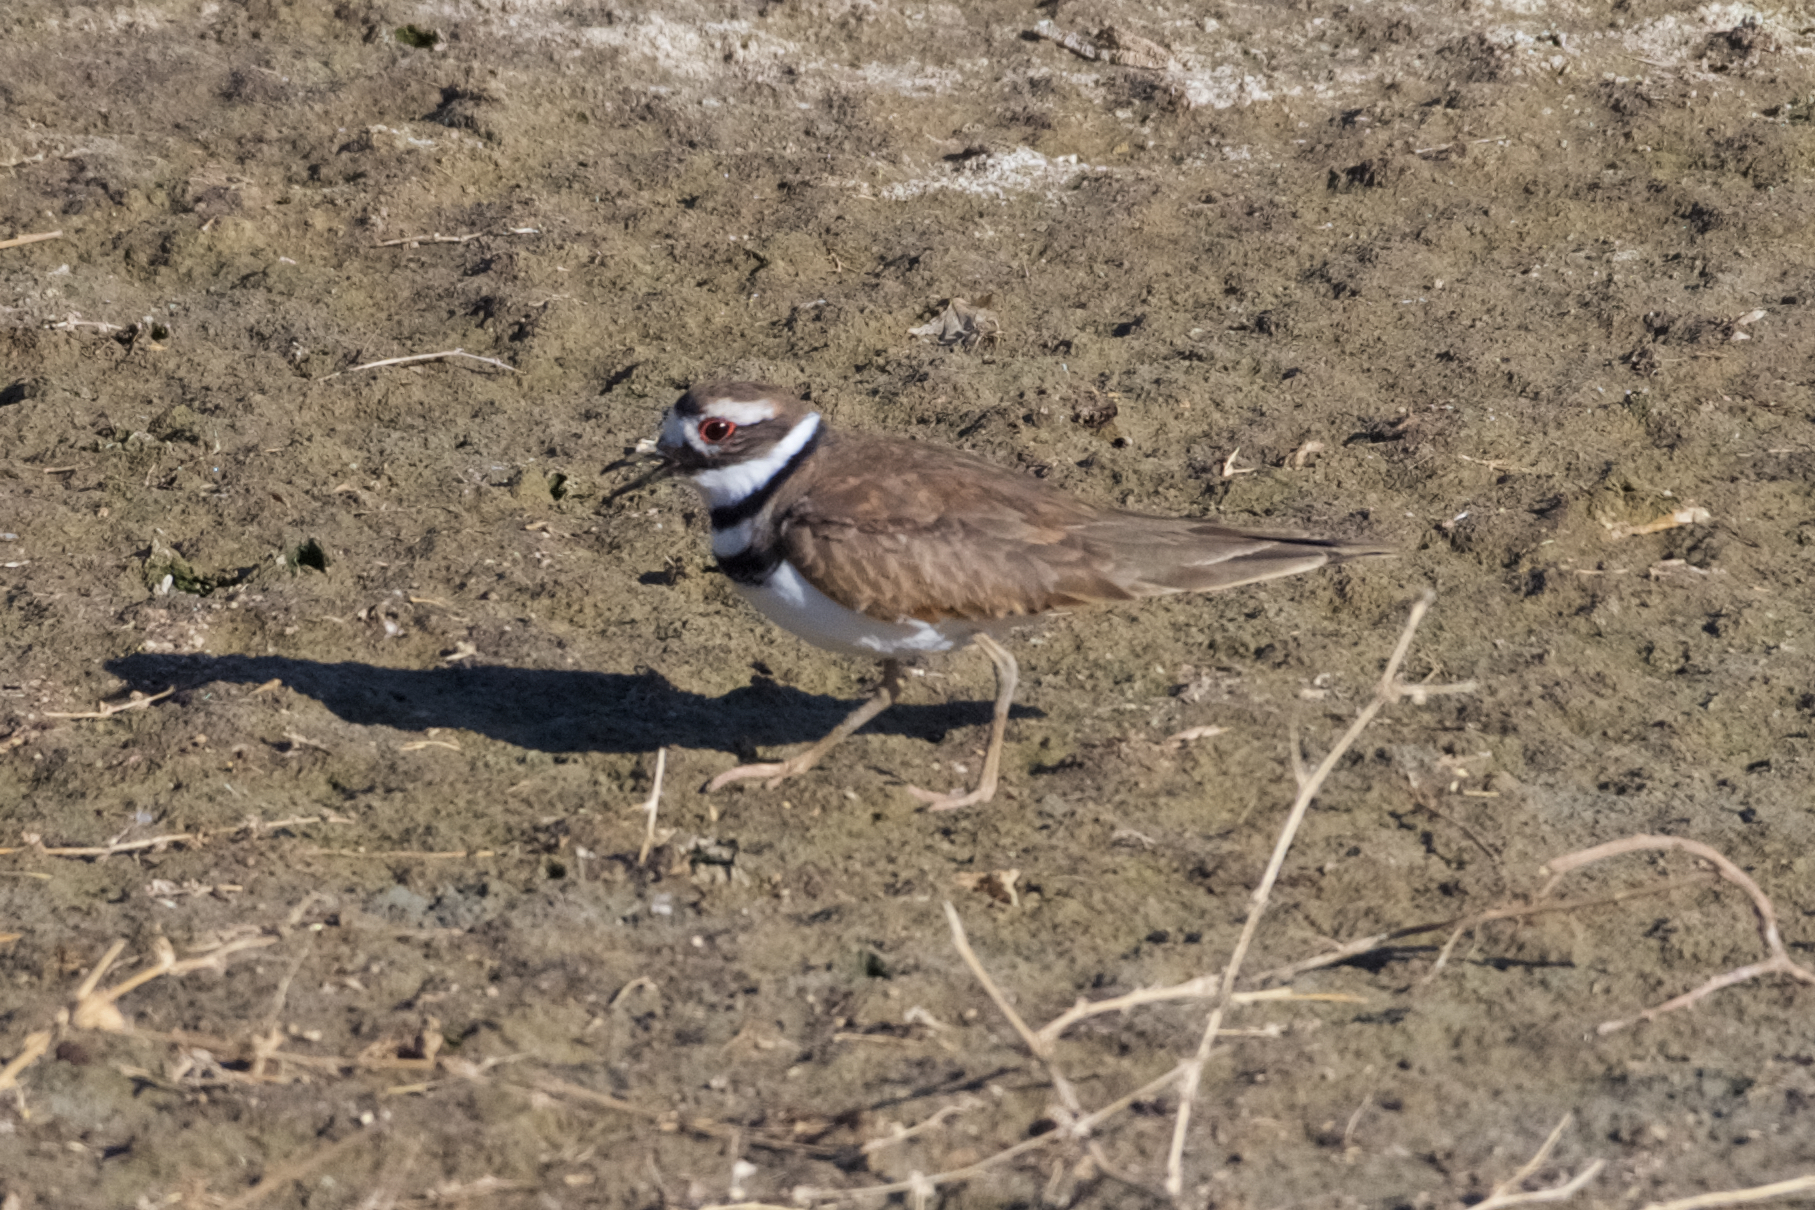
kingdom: Animalia
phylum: Chordata
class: Aves
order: Charadriiformes
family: Charadriidae
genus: Charadrius
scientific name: Charadrius vociferus
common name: Killdeer
